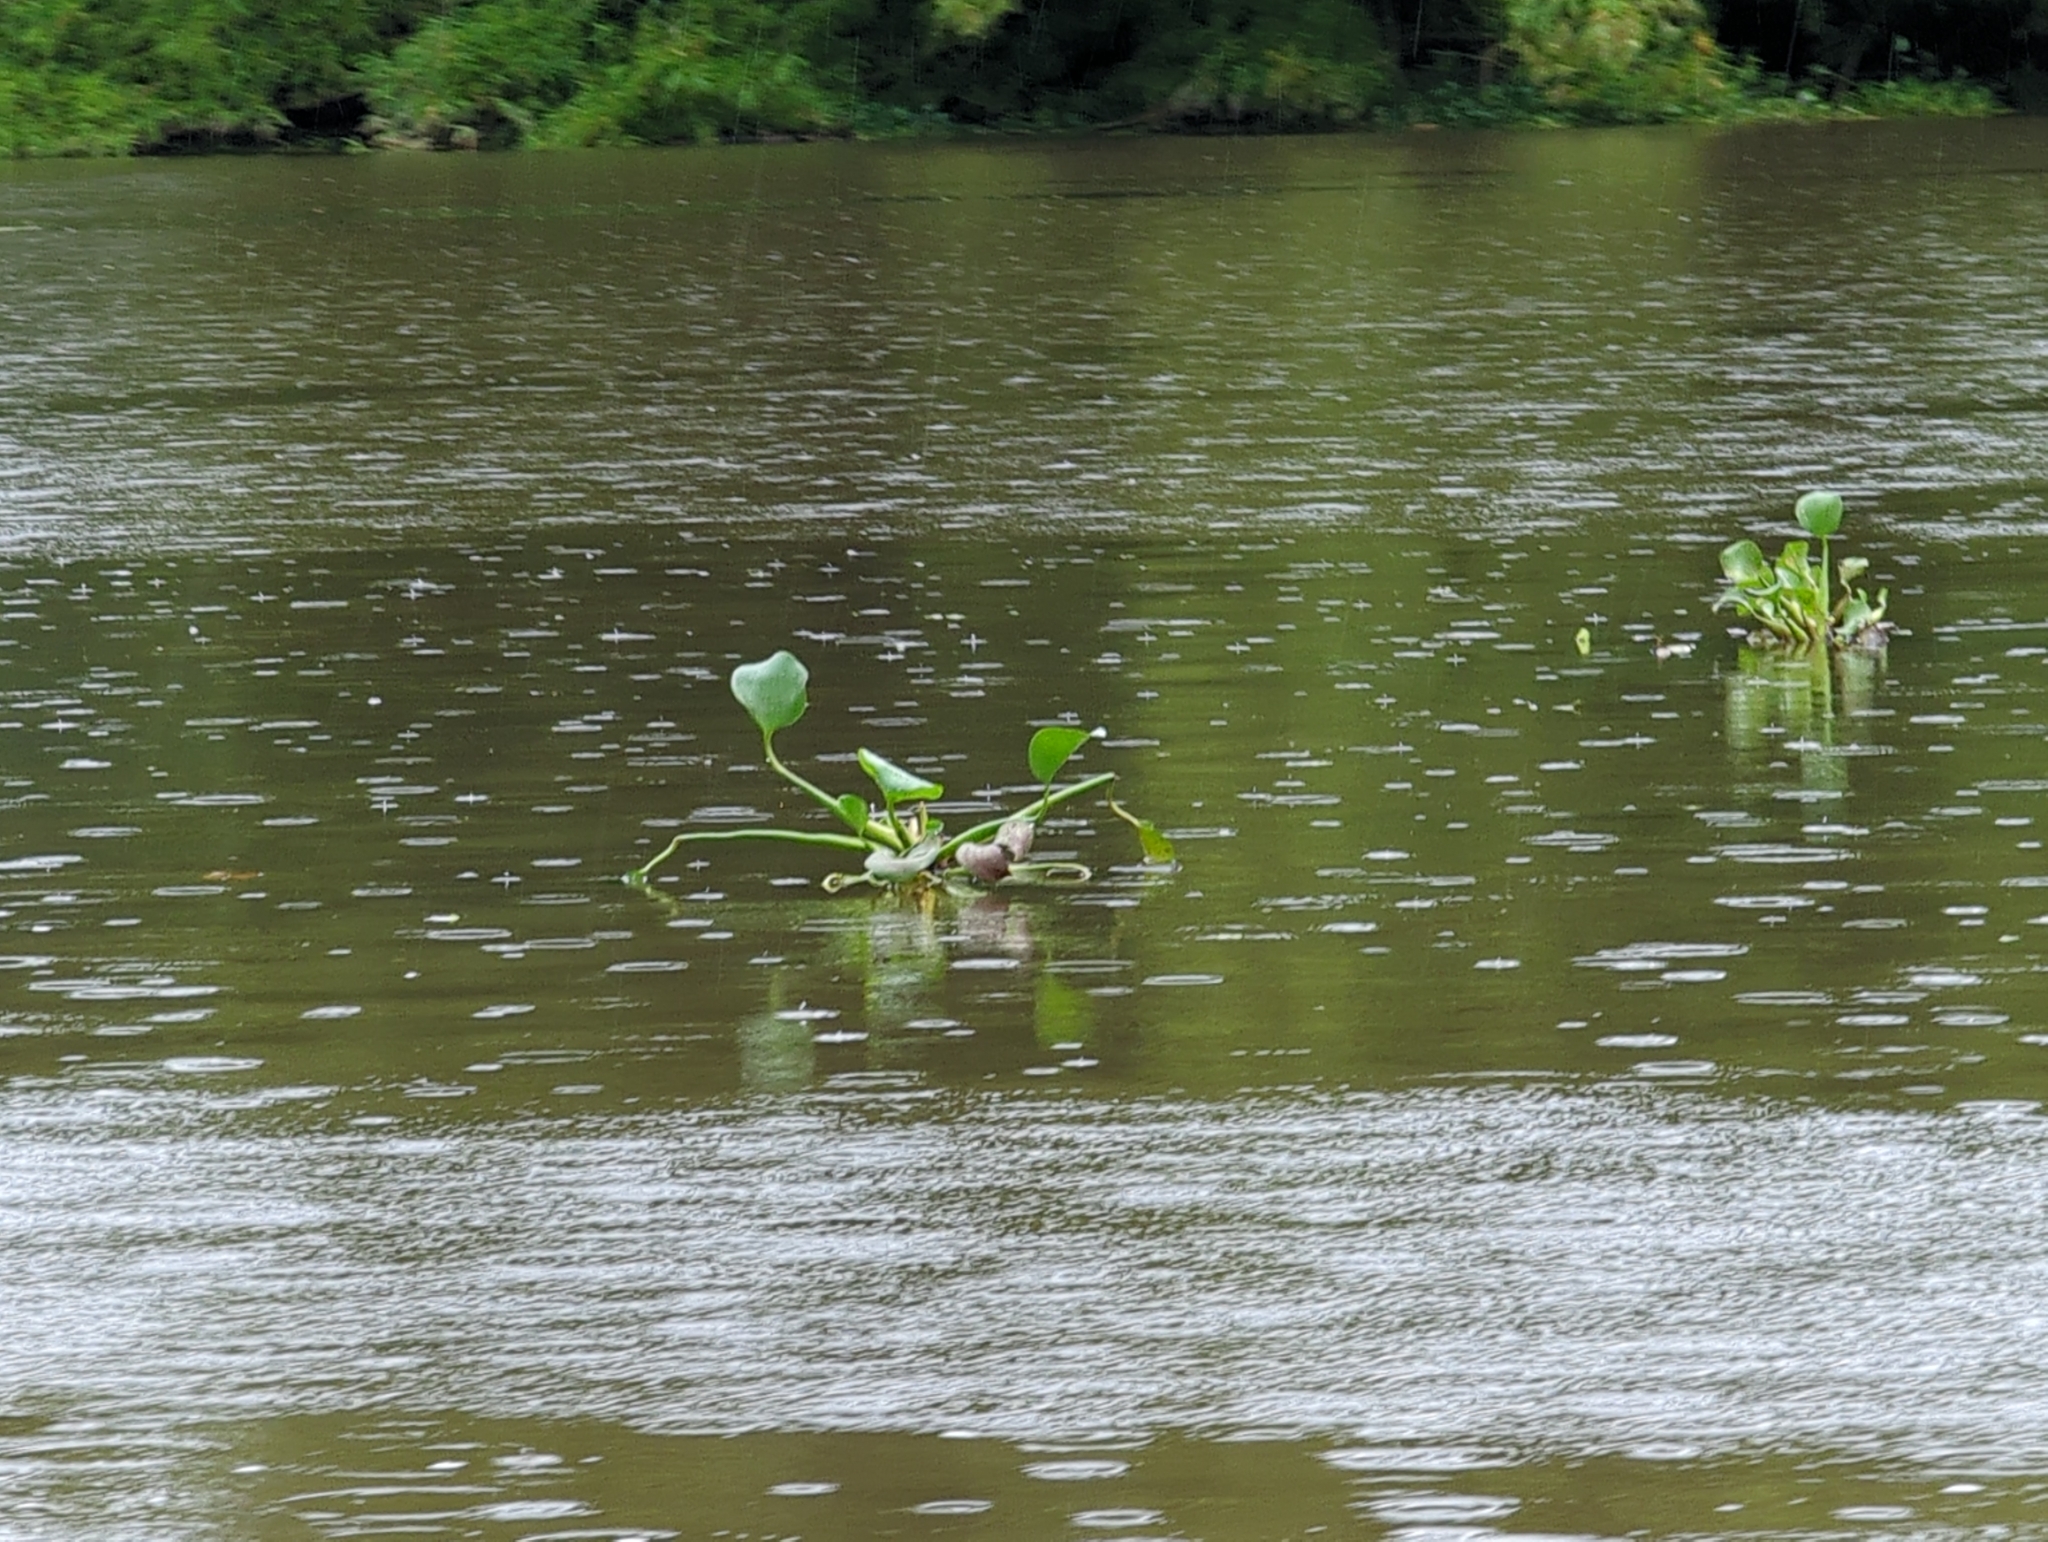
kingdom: Plantae
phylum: Tracheophyta
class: Liliopsida
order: Commelinales
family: Pontederiaceae
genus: Pontederia
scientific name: Pontederia crassipes
